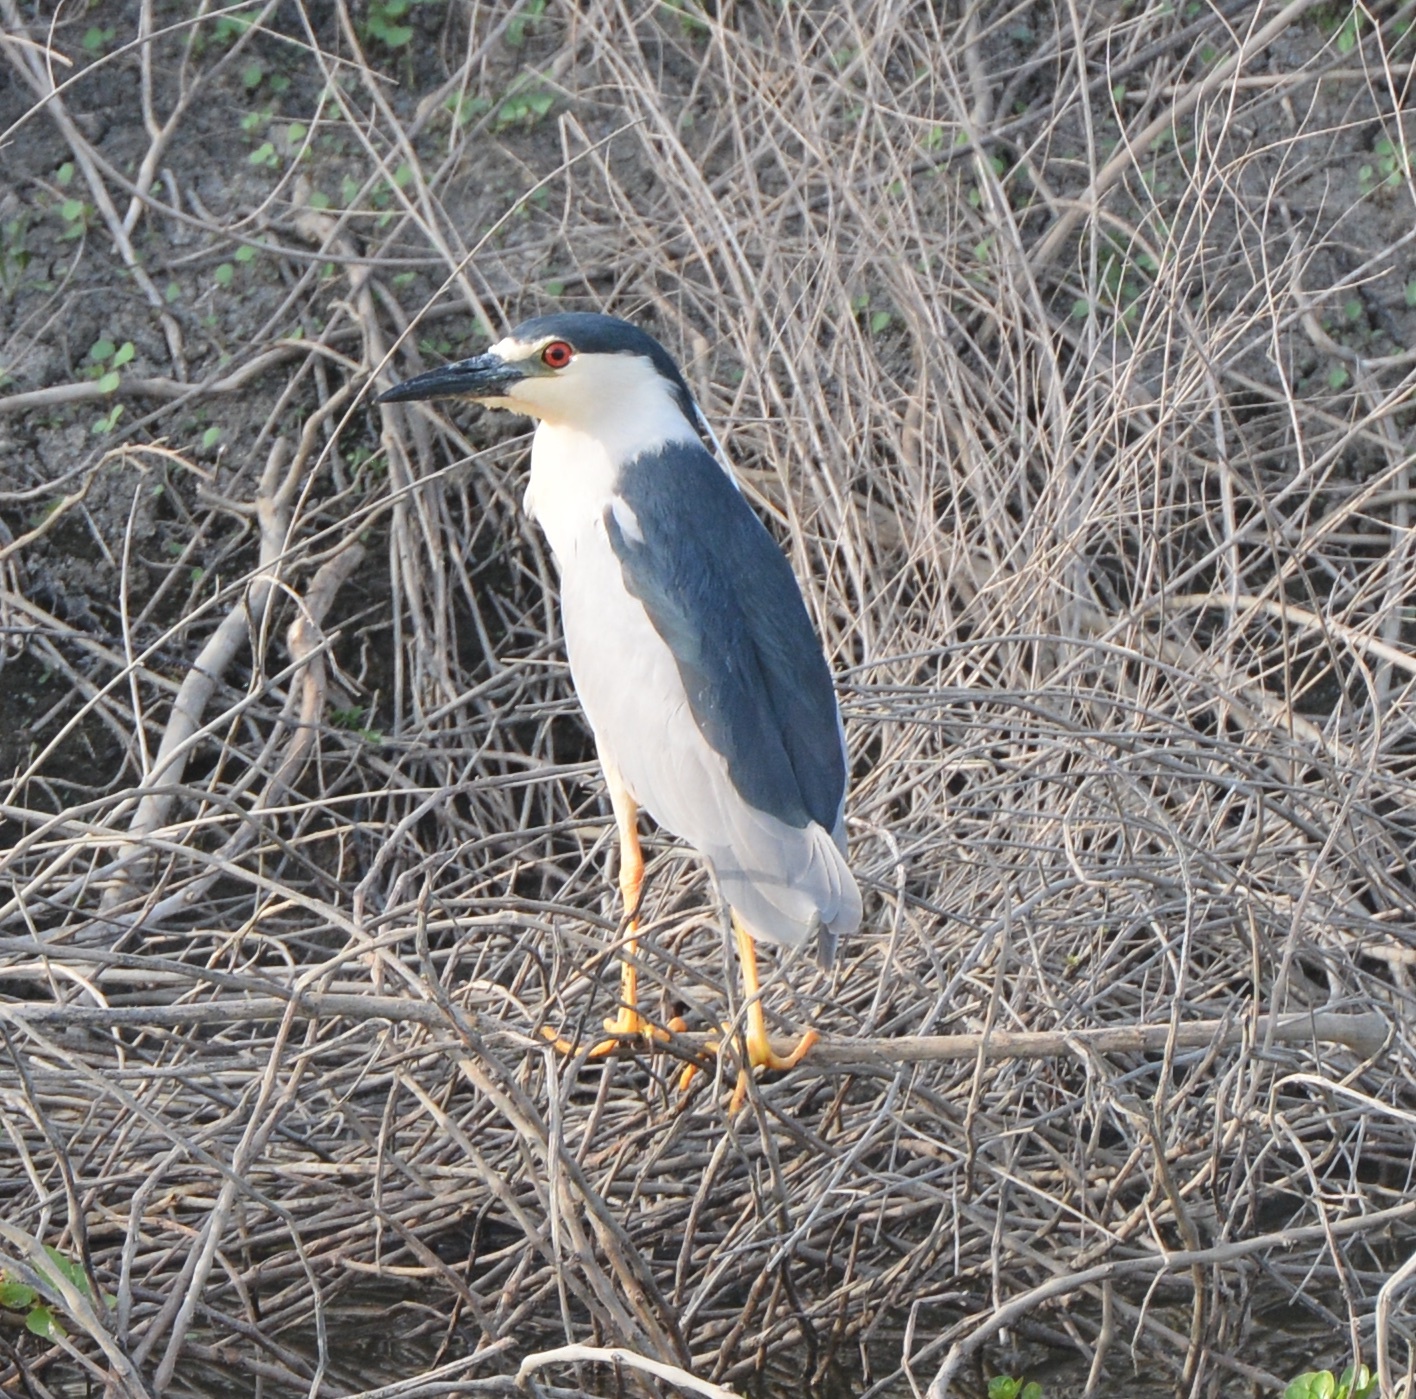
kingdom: Animalia
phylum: Chordata
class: Aves
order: Pelecaniformes
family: Ardeidae
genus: Nycticorax
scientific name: Nycticorax nycticorax
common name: Black-crowned night heron
